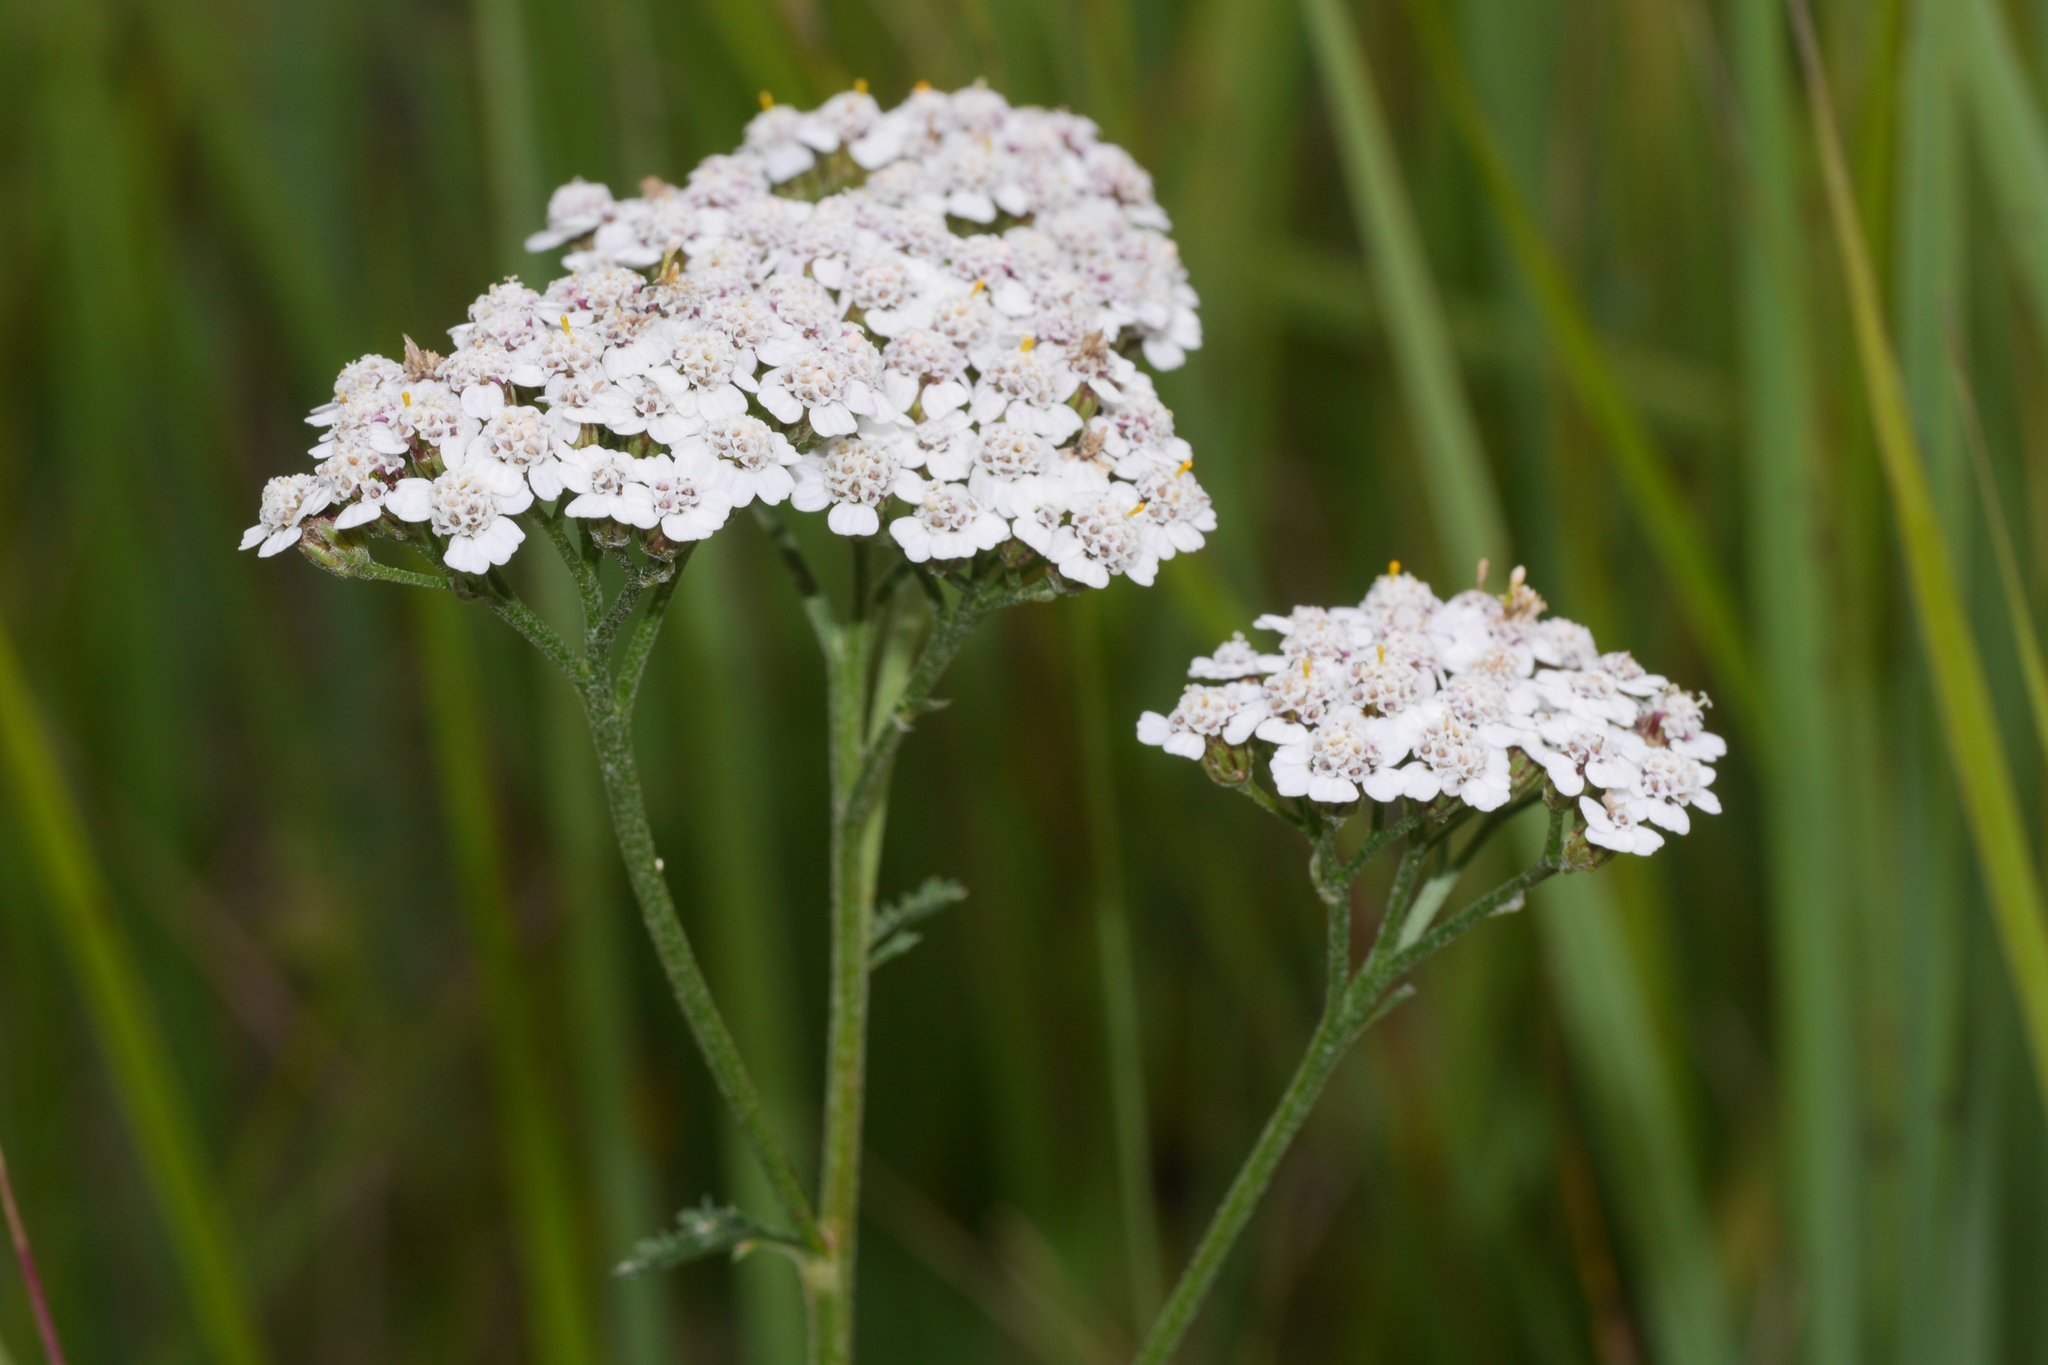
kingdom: Plantae
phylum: Tracheophyta
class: Magnoliopsida
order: Asterales
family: Asteraceae
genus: Achillea
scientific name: Achillea millefolium
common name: Yarrow
